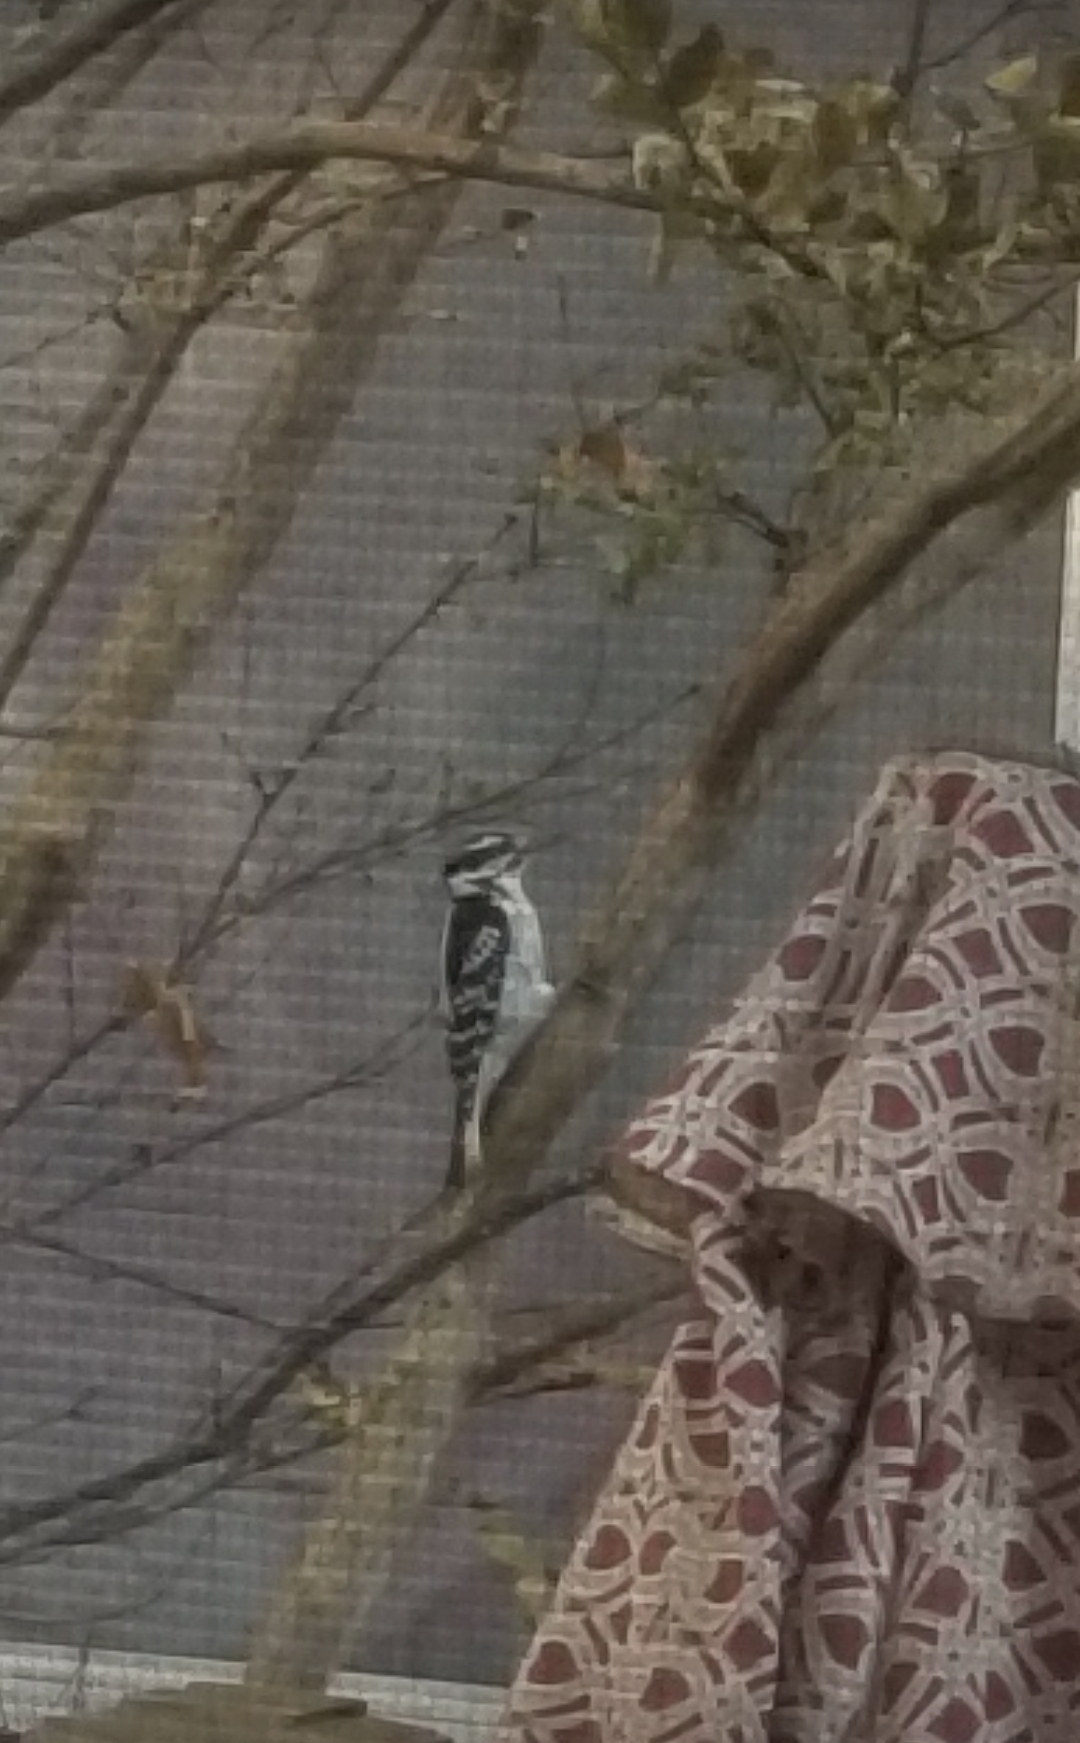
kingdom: Animalia
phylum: Chordata
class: Aves
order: Piciformes
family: Picidae
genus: Dryobates
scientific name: Dryobates pubescens
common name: Downy woodpecker
